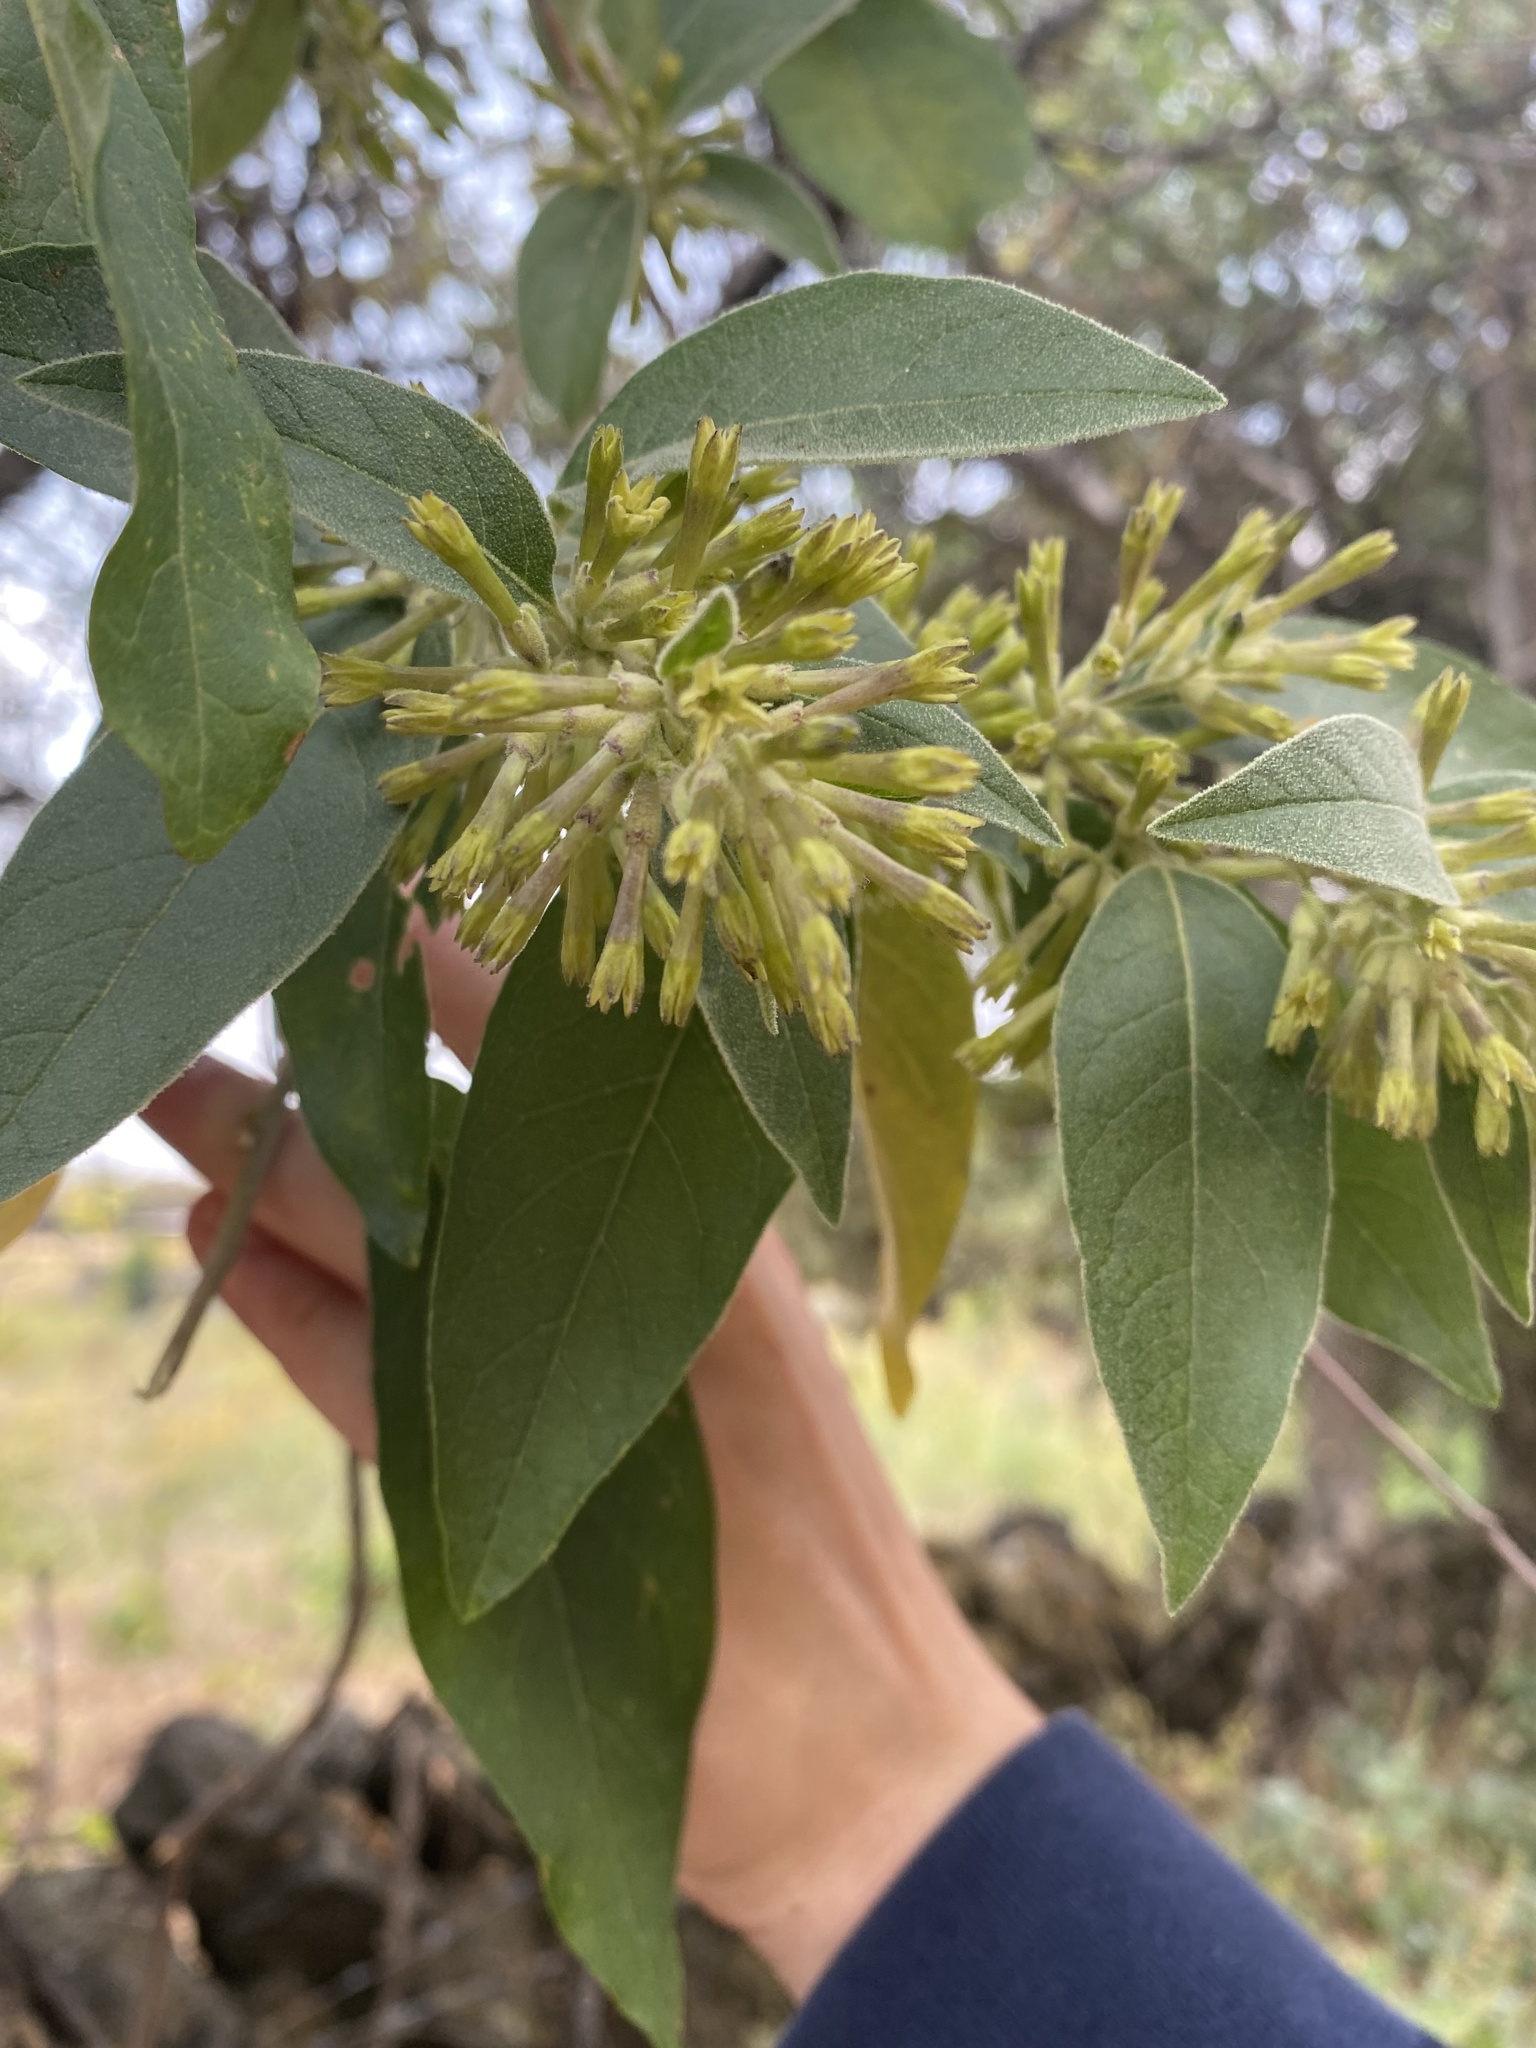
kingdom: Plantae
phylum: Tracheophyta
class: Magnoliopsida
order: Solanales
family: Solanaceae
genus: Cestrum
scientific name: Cestrum tomentosum
